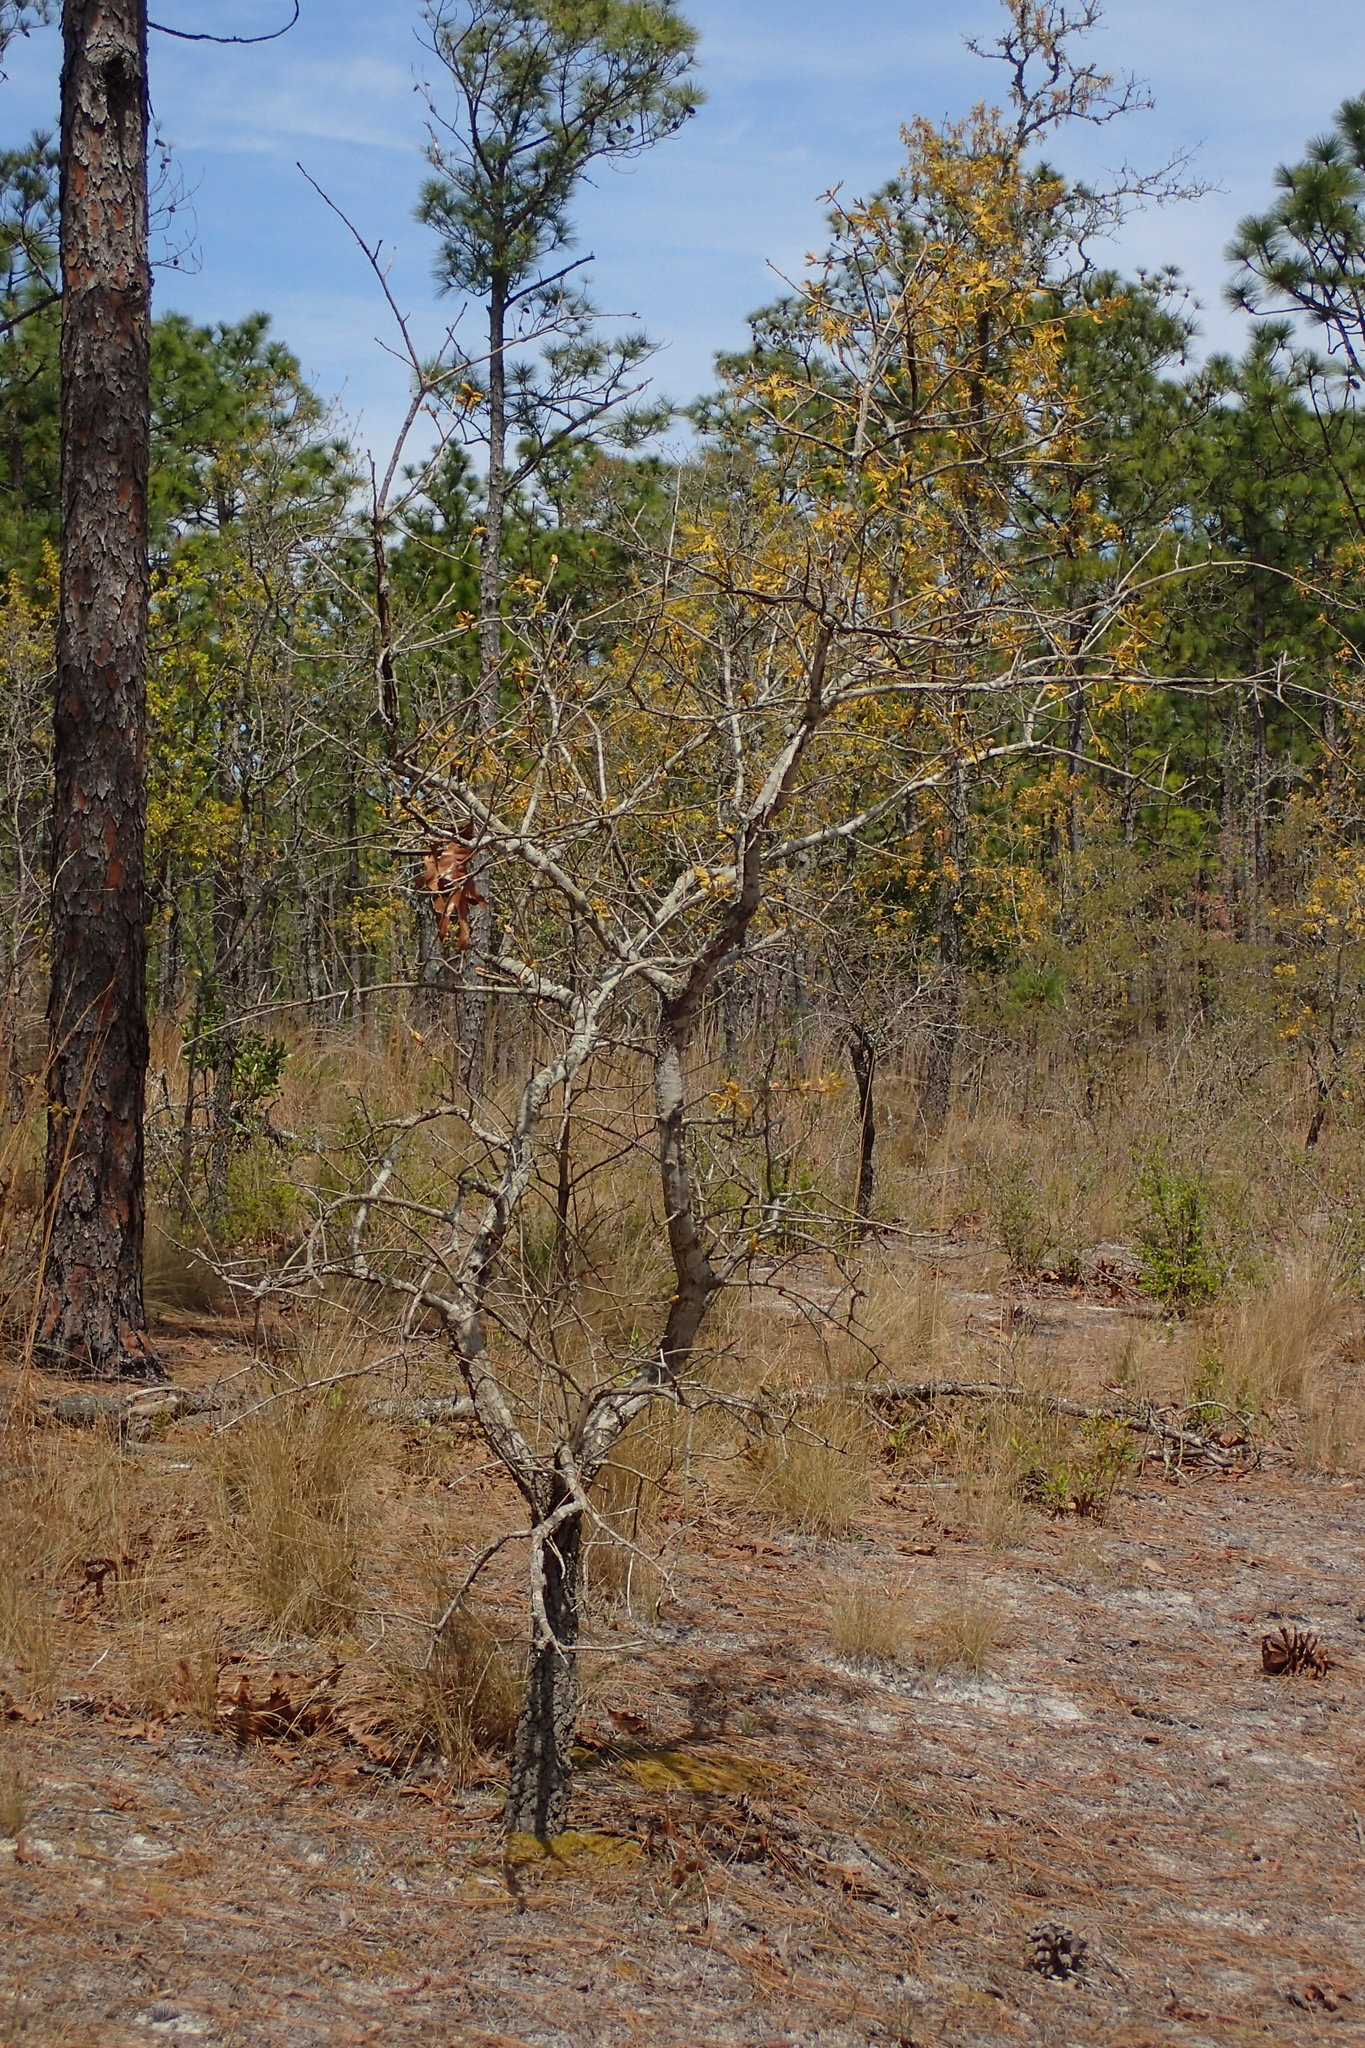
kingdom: Plantae
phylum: Tracheophyta
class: Magnoliopsida
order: Fagales
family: Fagaceae
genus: Quercus
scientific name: Quercus laevis
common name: Turkey oak
